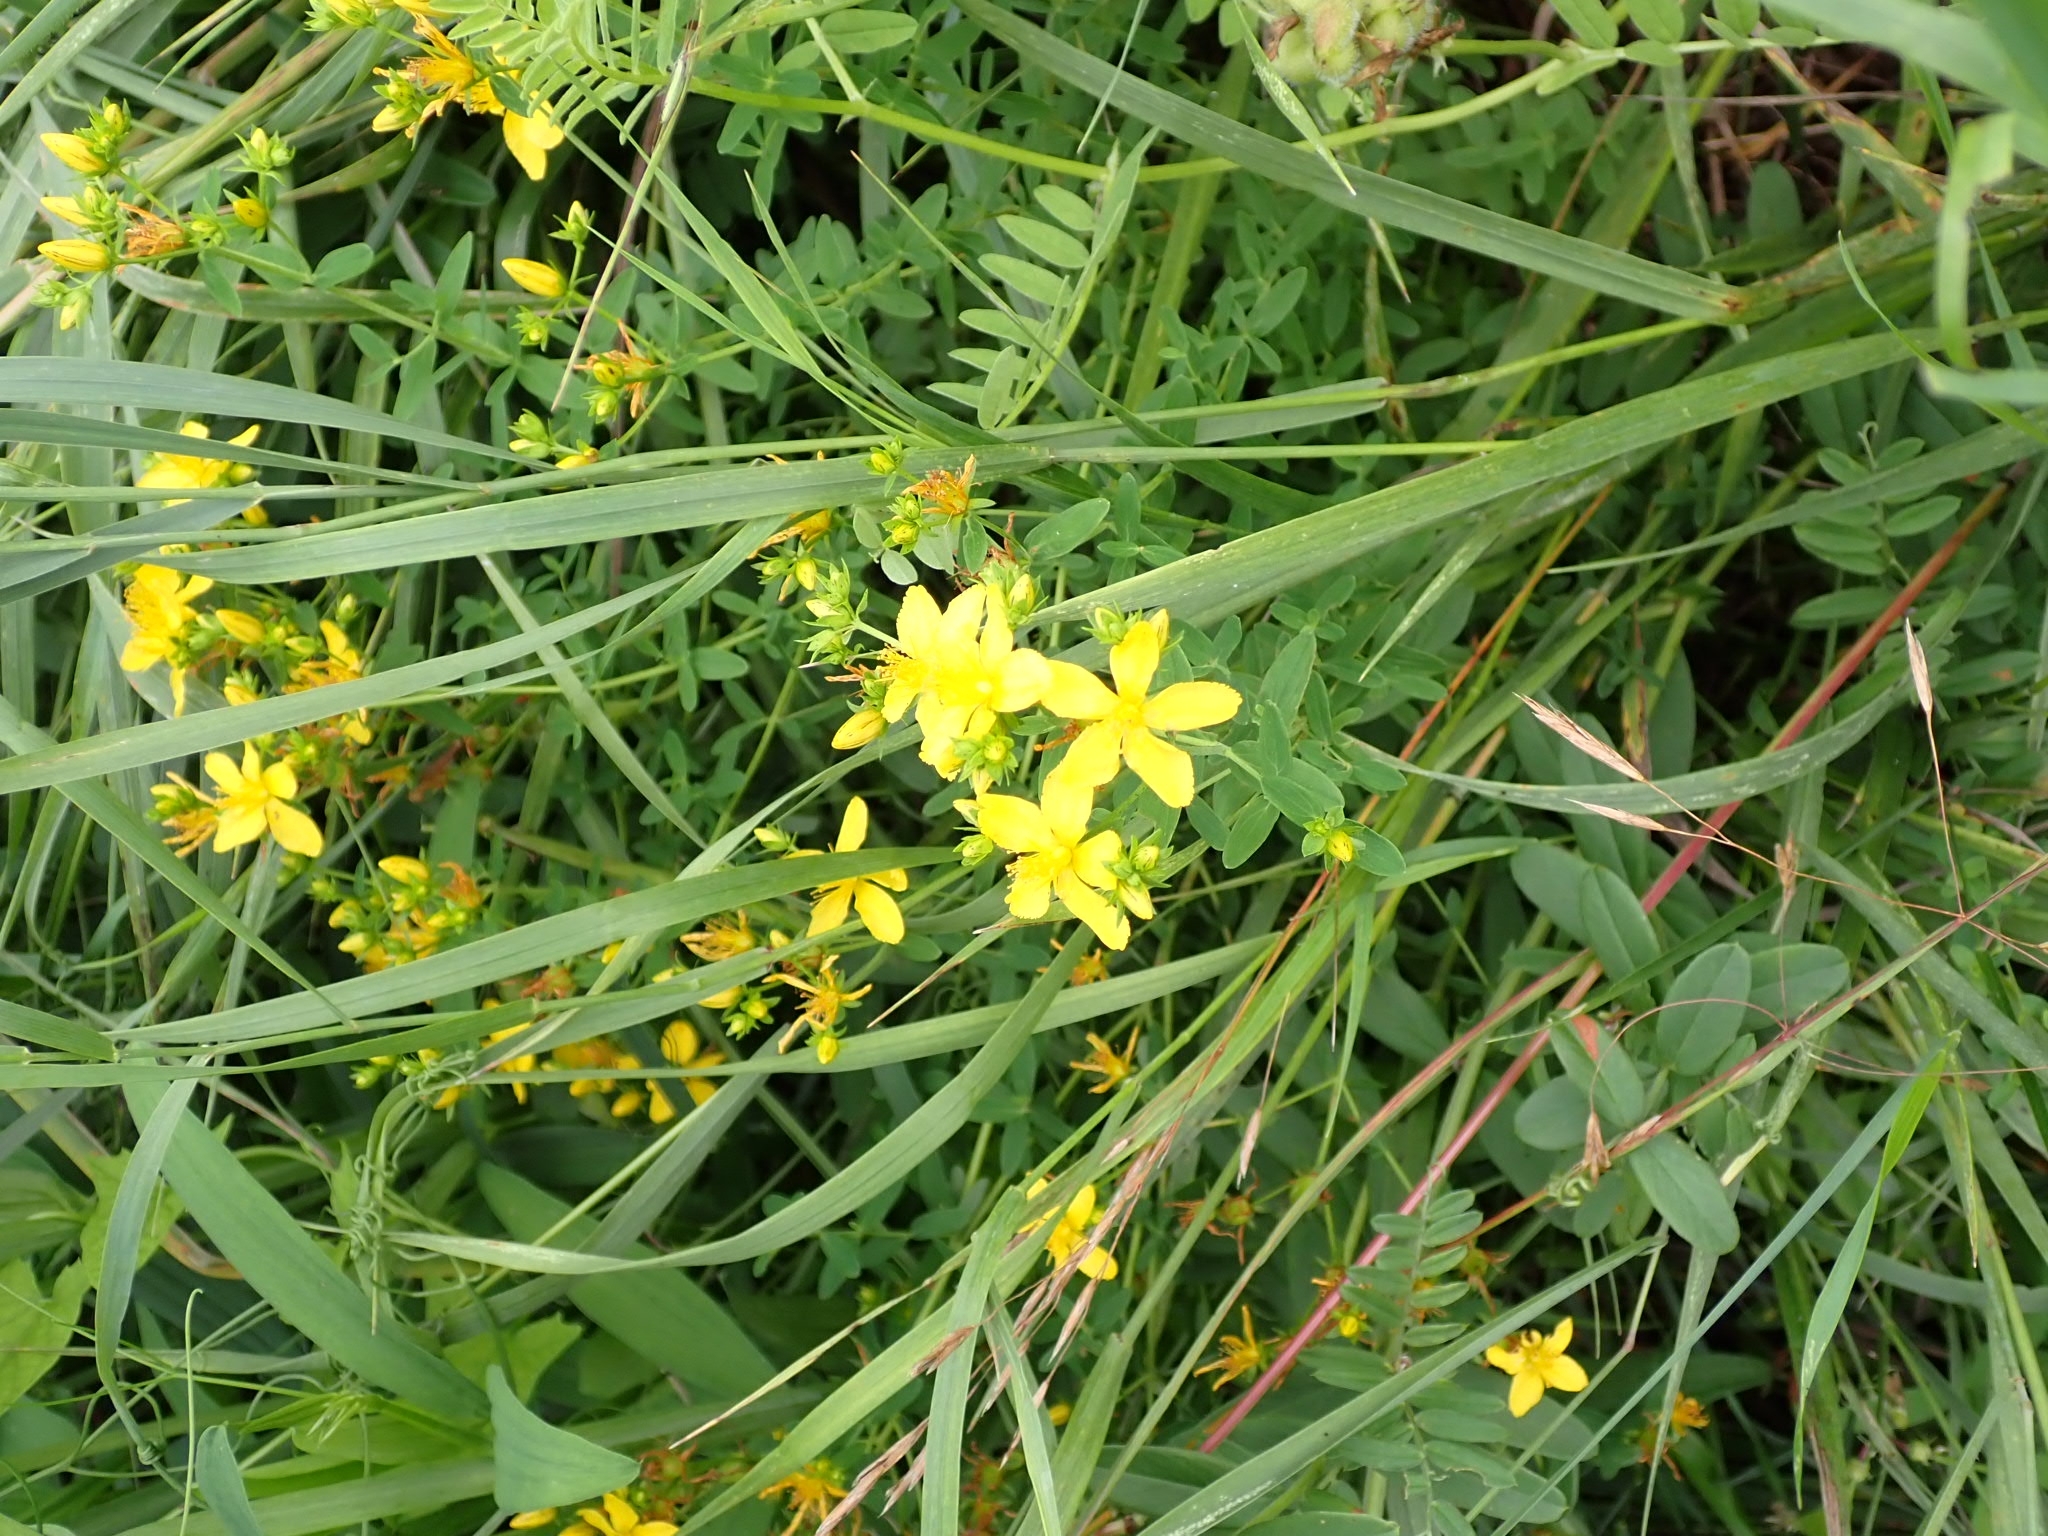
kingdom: Plantae
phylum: Tracheophyta
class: Magnoliopsida
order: Malpighiales
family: Hypericaceae
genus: Hypericum
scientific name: Hypericum perforatum
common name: Common st. johnswort
